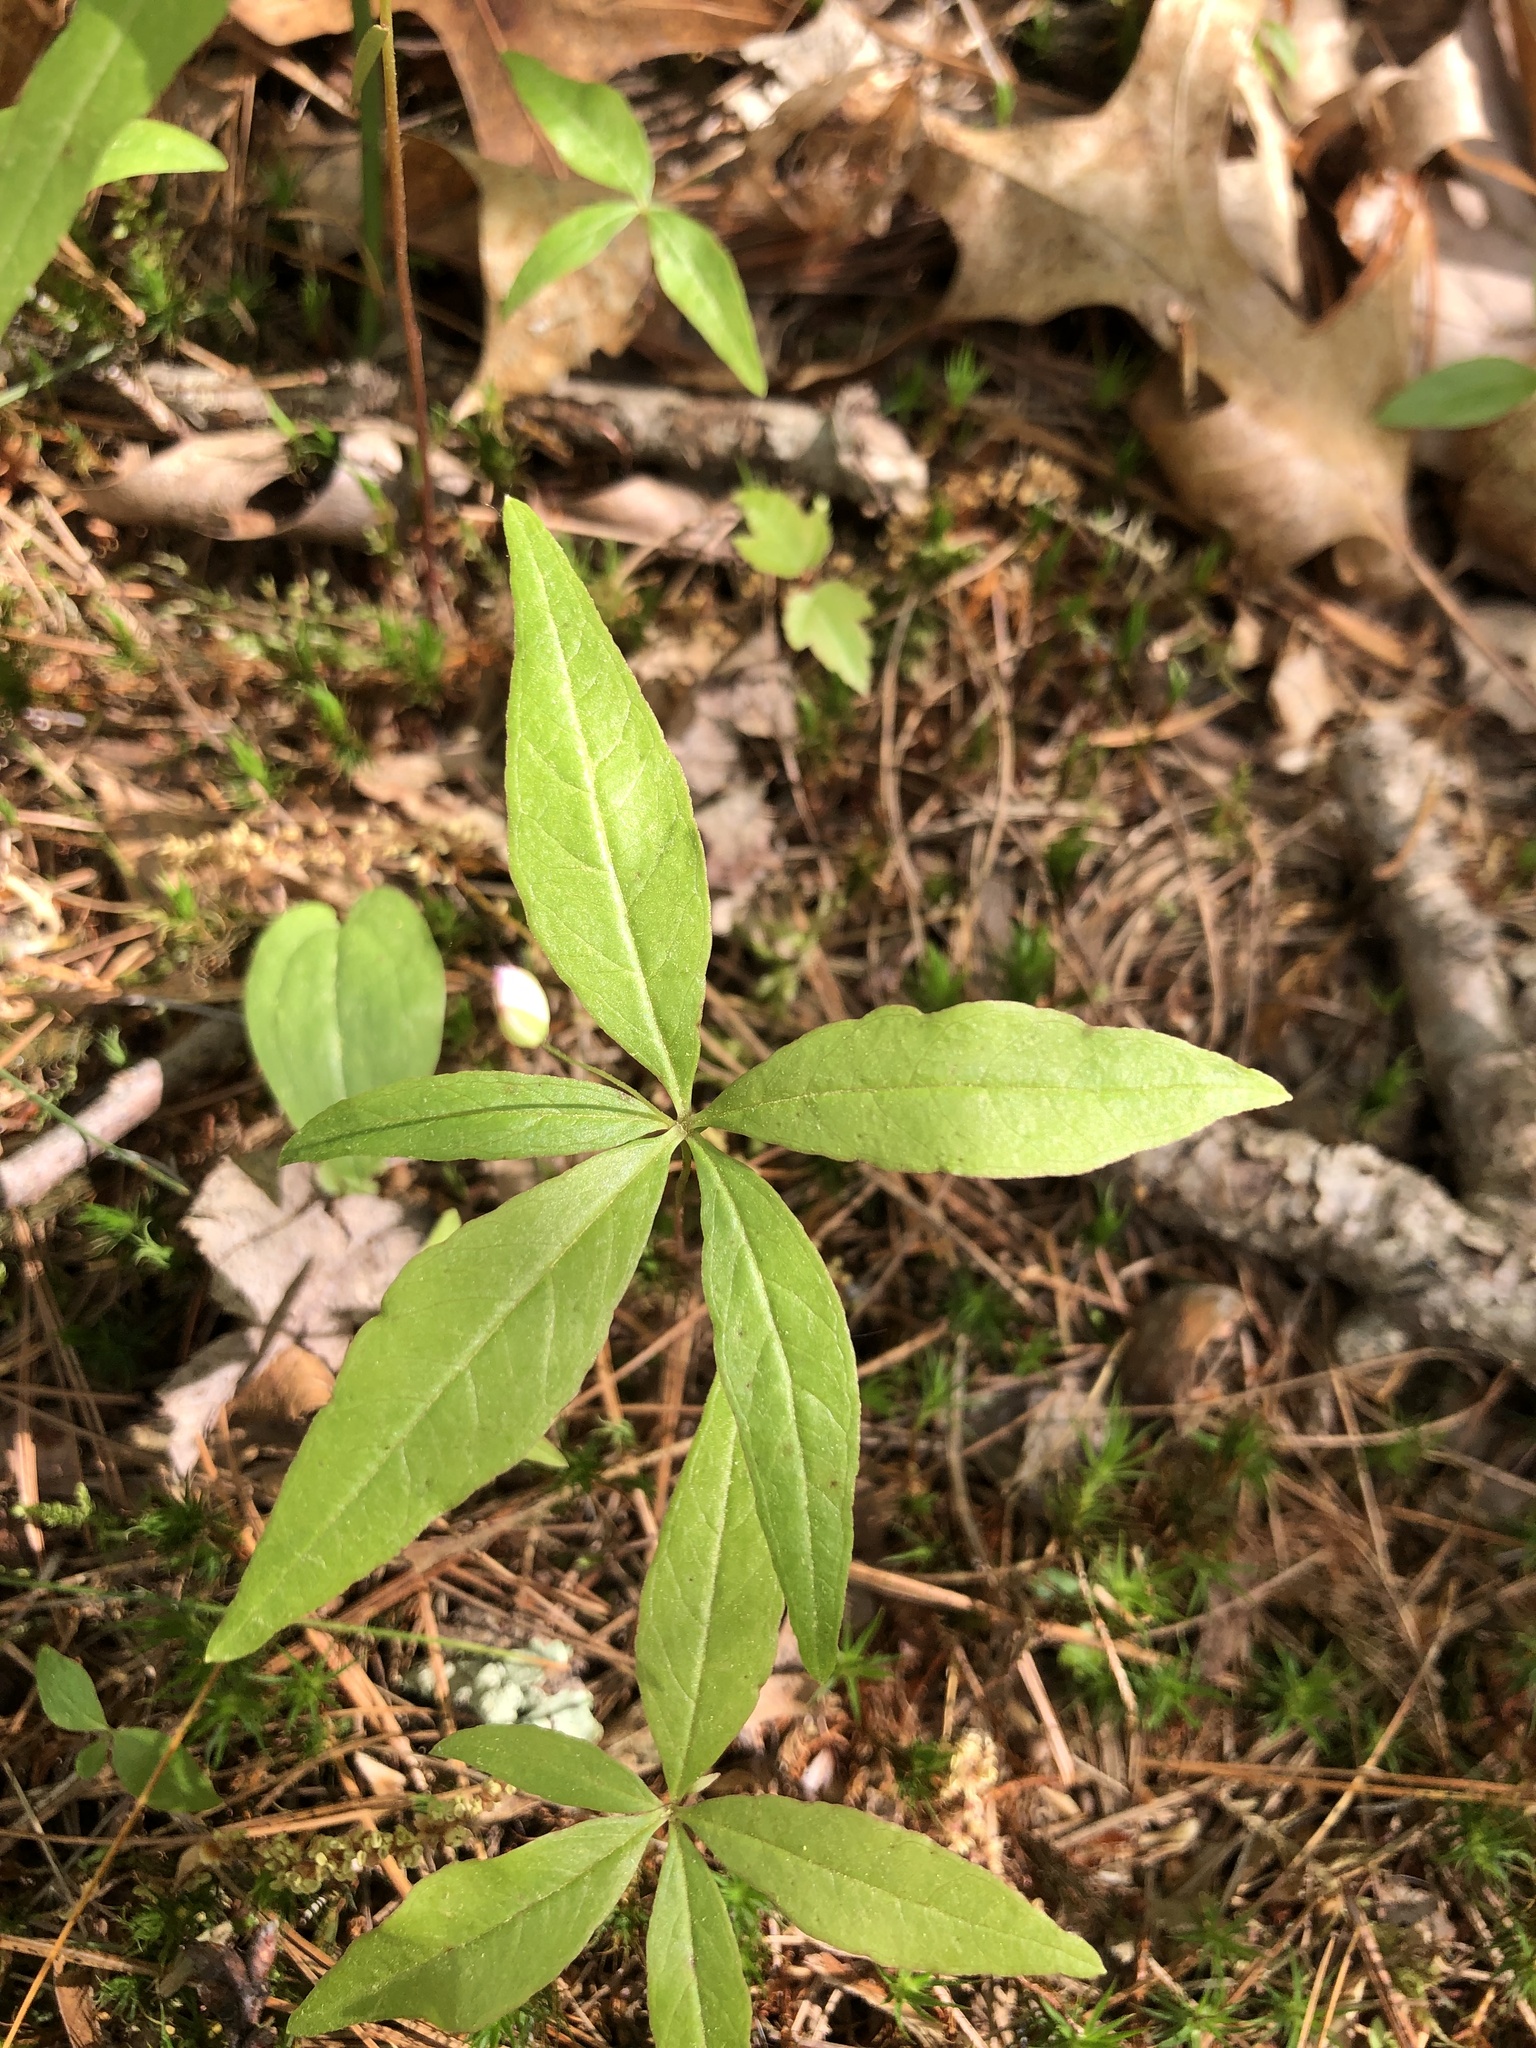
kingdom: Plantae
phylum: Tracheophyta
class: Magnoliopsida
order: Ericales
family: Primulaceae
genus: Lysimachia
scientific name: Lysimachia borealis
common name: American starflower
